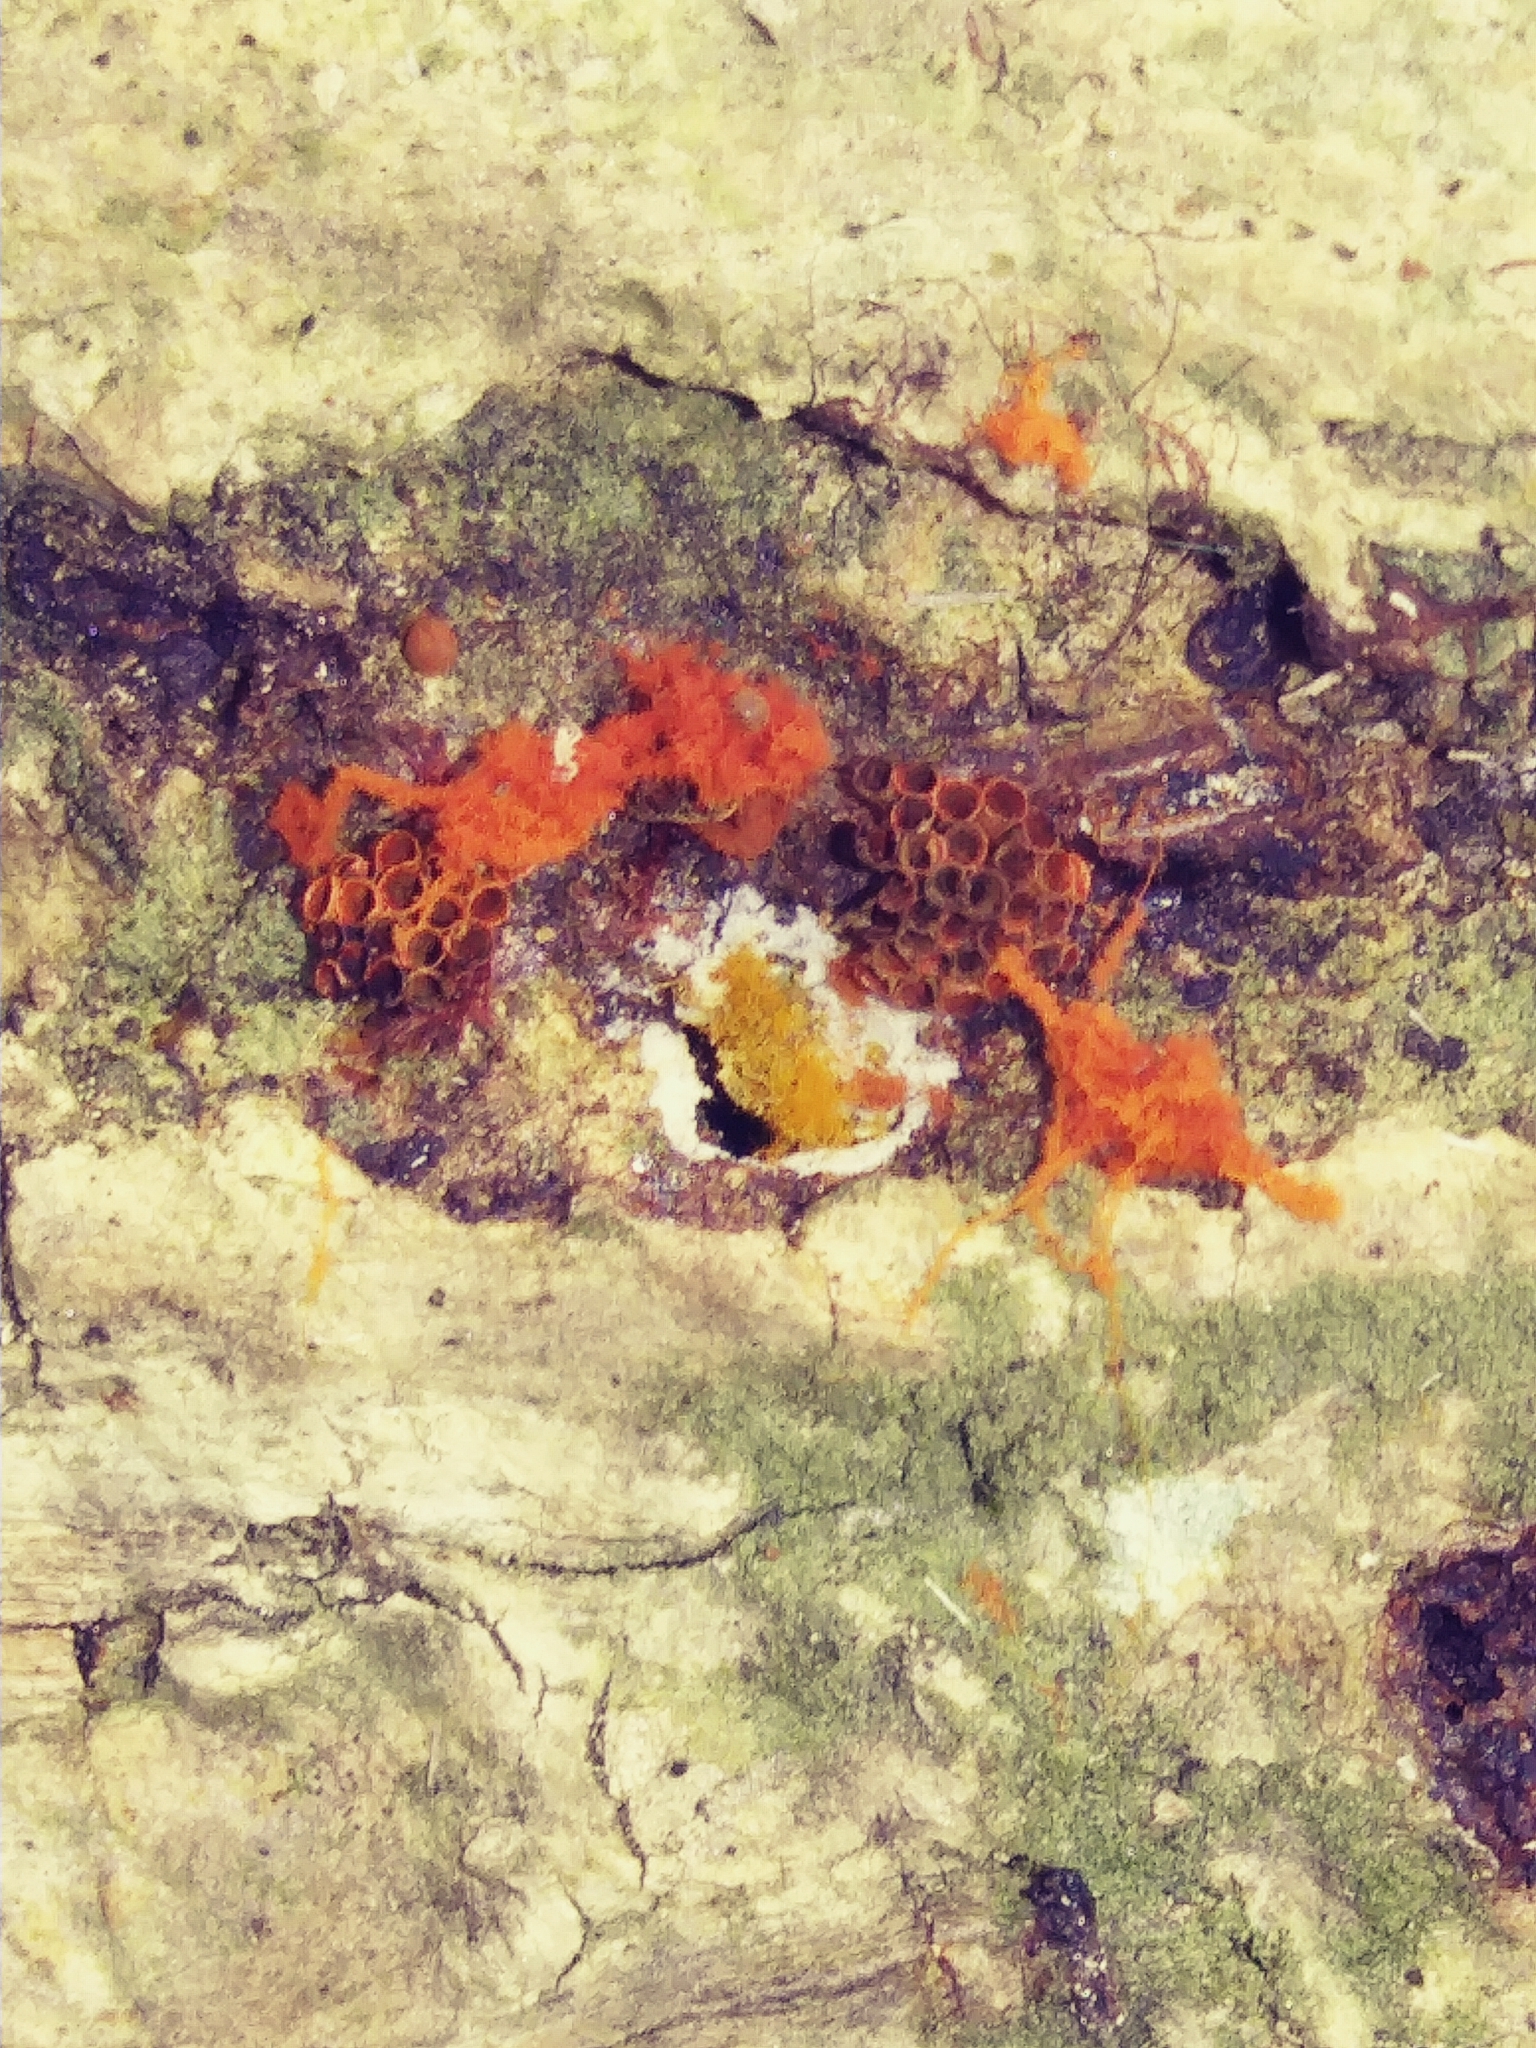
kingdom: Protozoa
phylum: Mycetozoa
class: Myxomycetes
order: Trichiales
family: Trichiaceae
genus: Metatrichia
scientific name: Metatrichia vesparia
